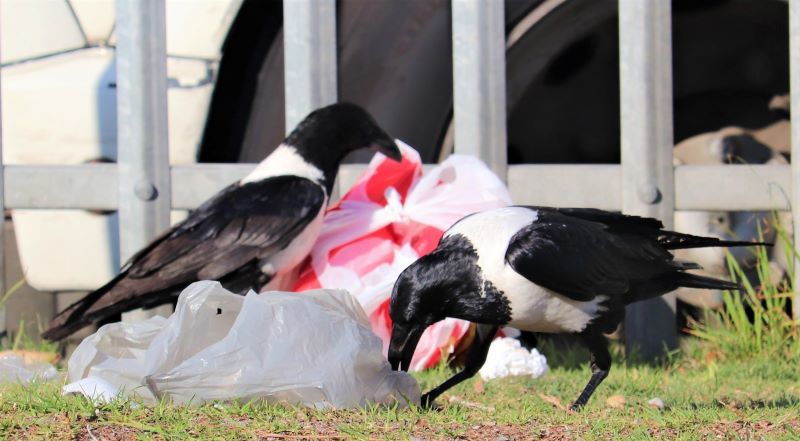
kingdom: Animalia
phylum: Chordata
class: Aves
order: Passeriformes
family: Corvidae
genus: Corvus
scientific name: Corvus albus
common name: Pied crow
